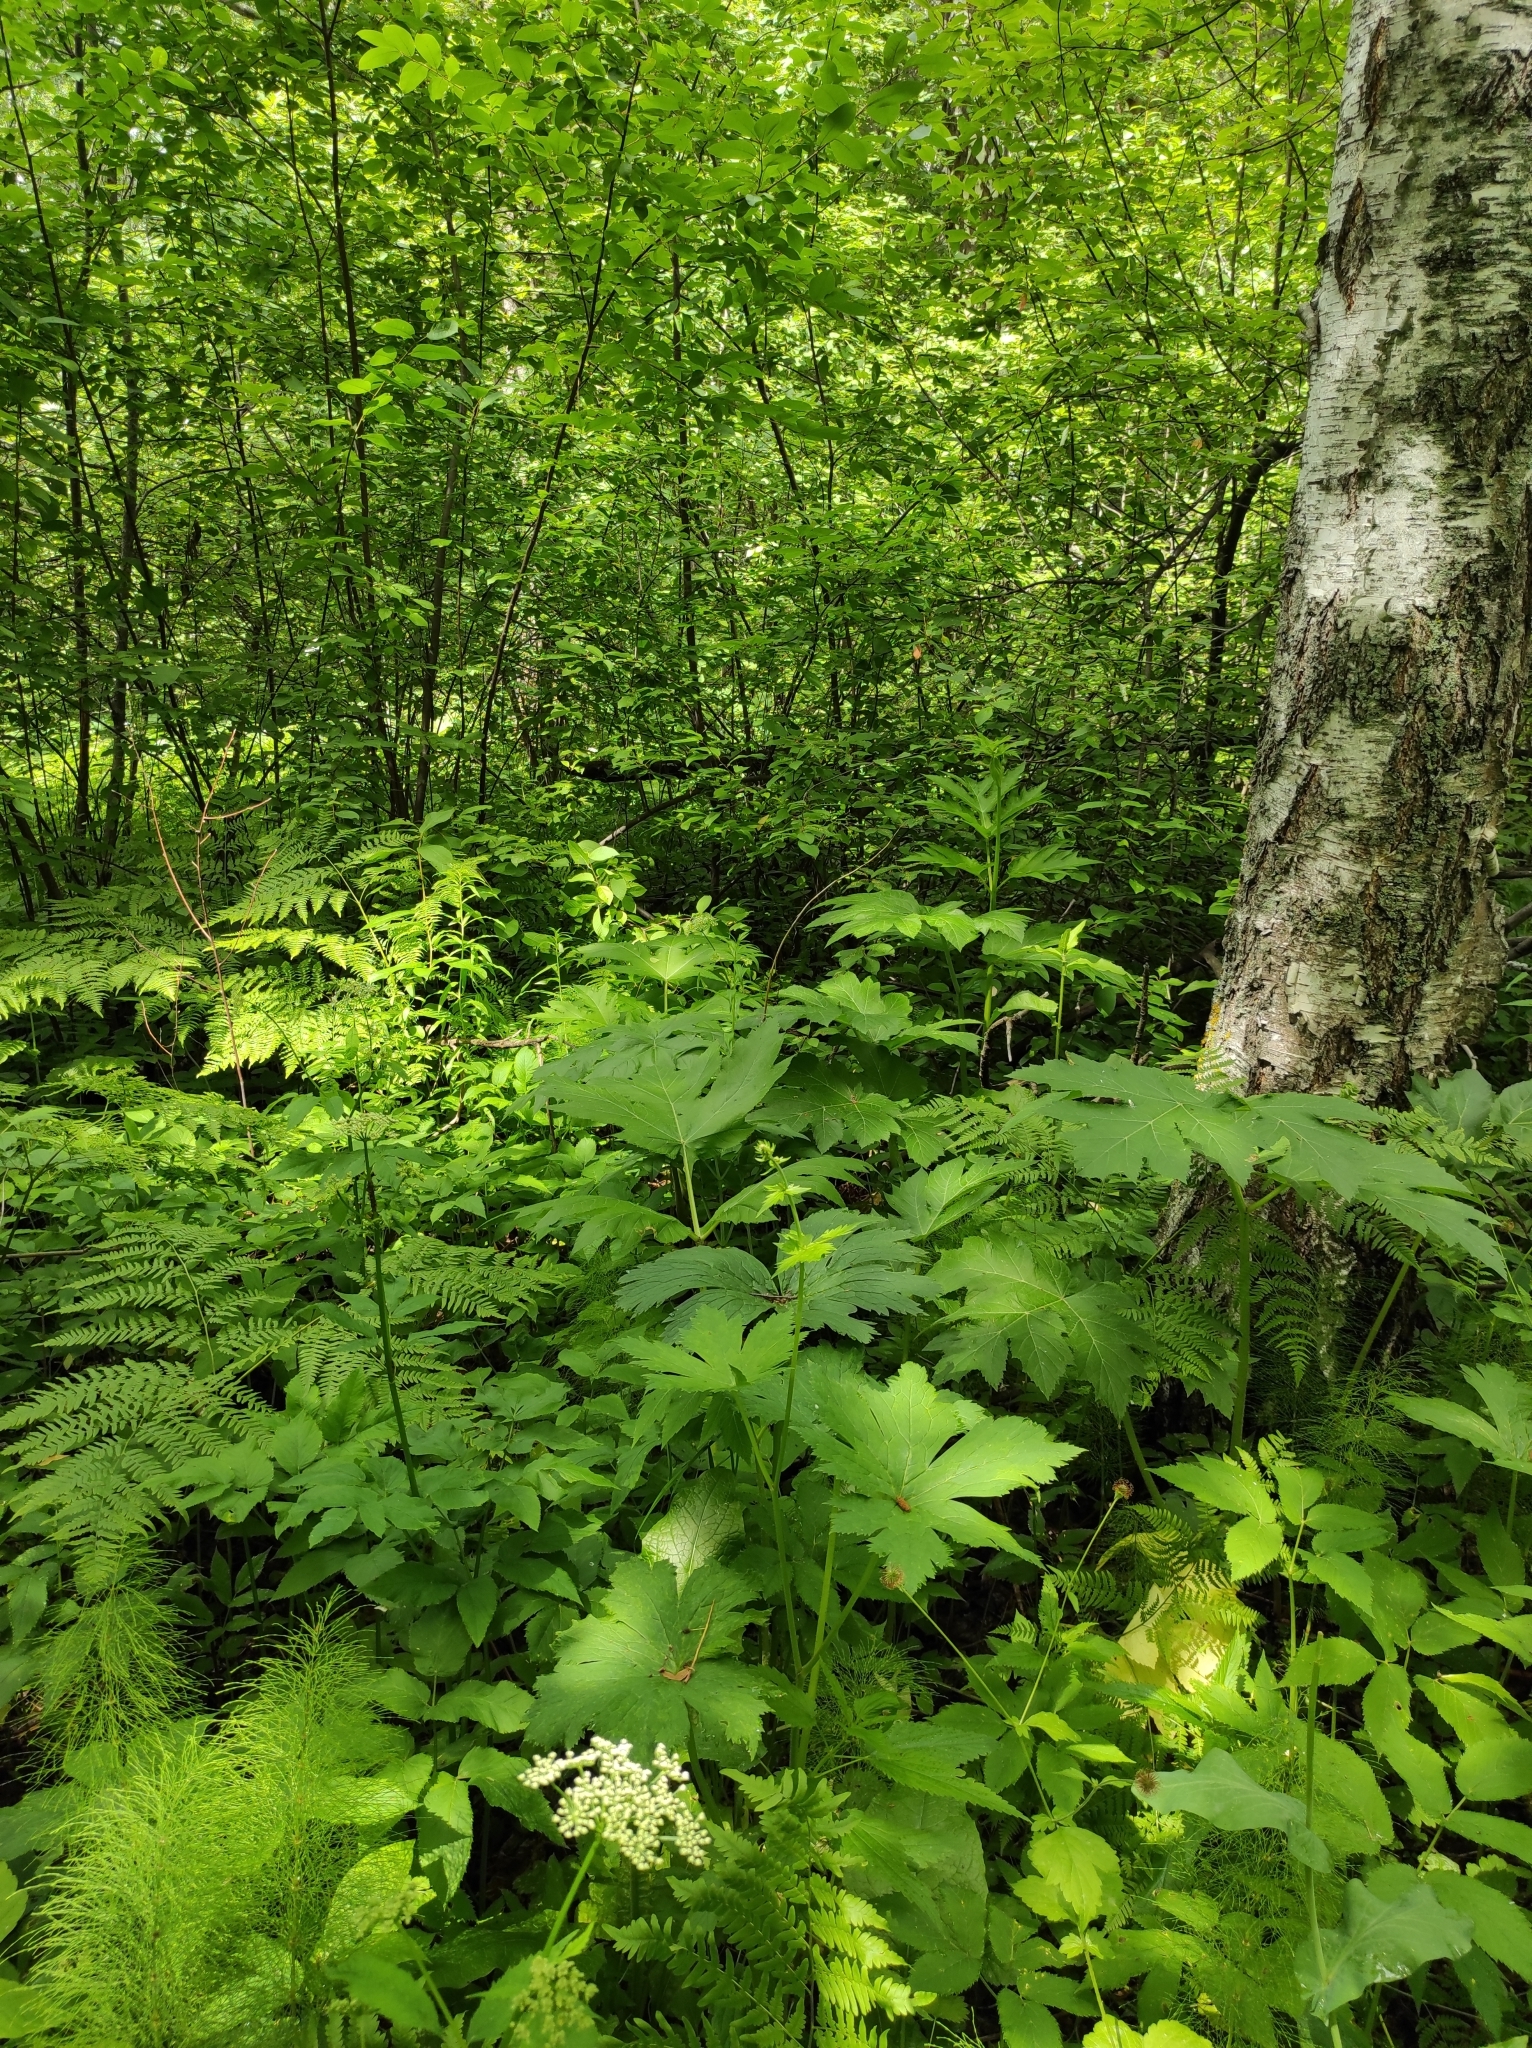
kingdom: Plantae
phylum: Tracheophyta
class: Magnoliopsida
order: Fagales
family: Betulaceae
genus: Betula
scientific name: Betula pendula
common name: Silver birch
